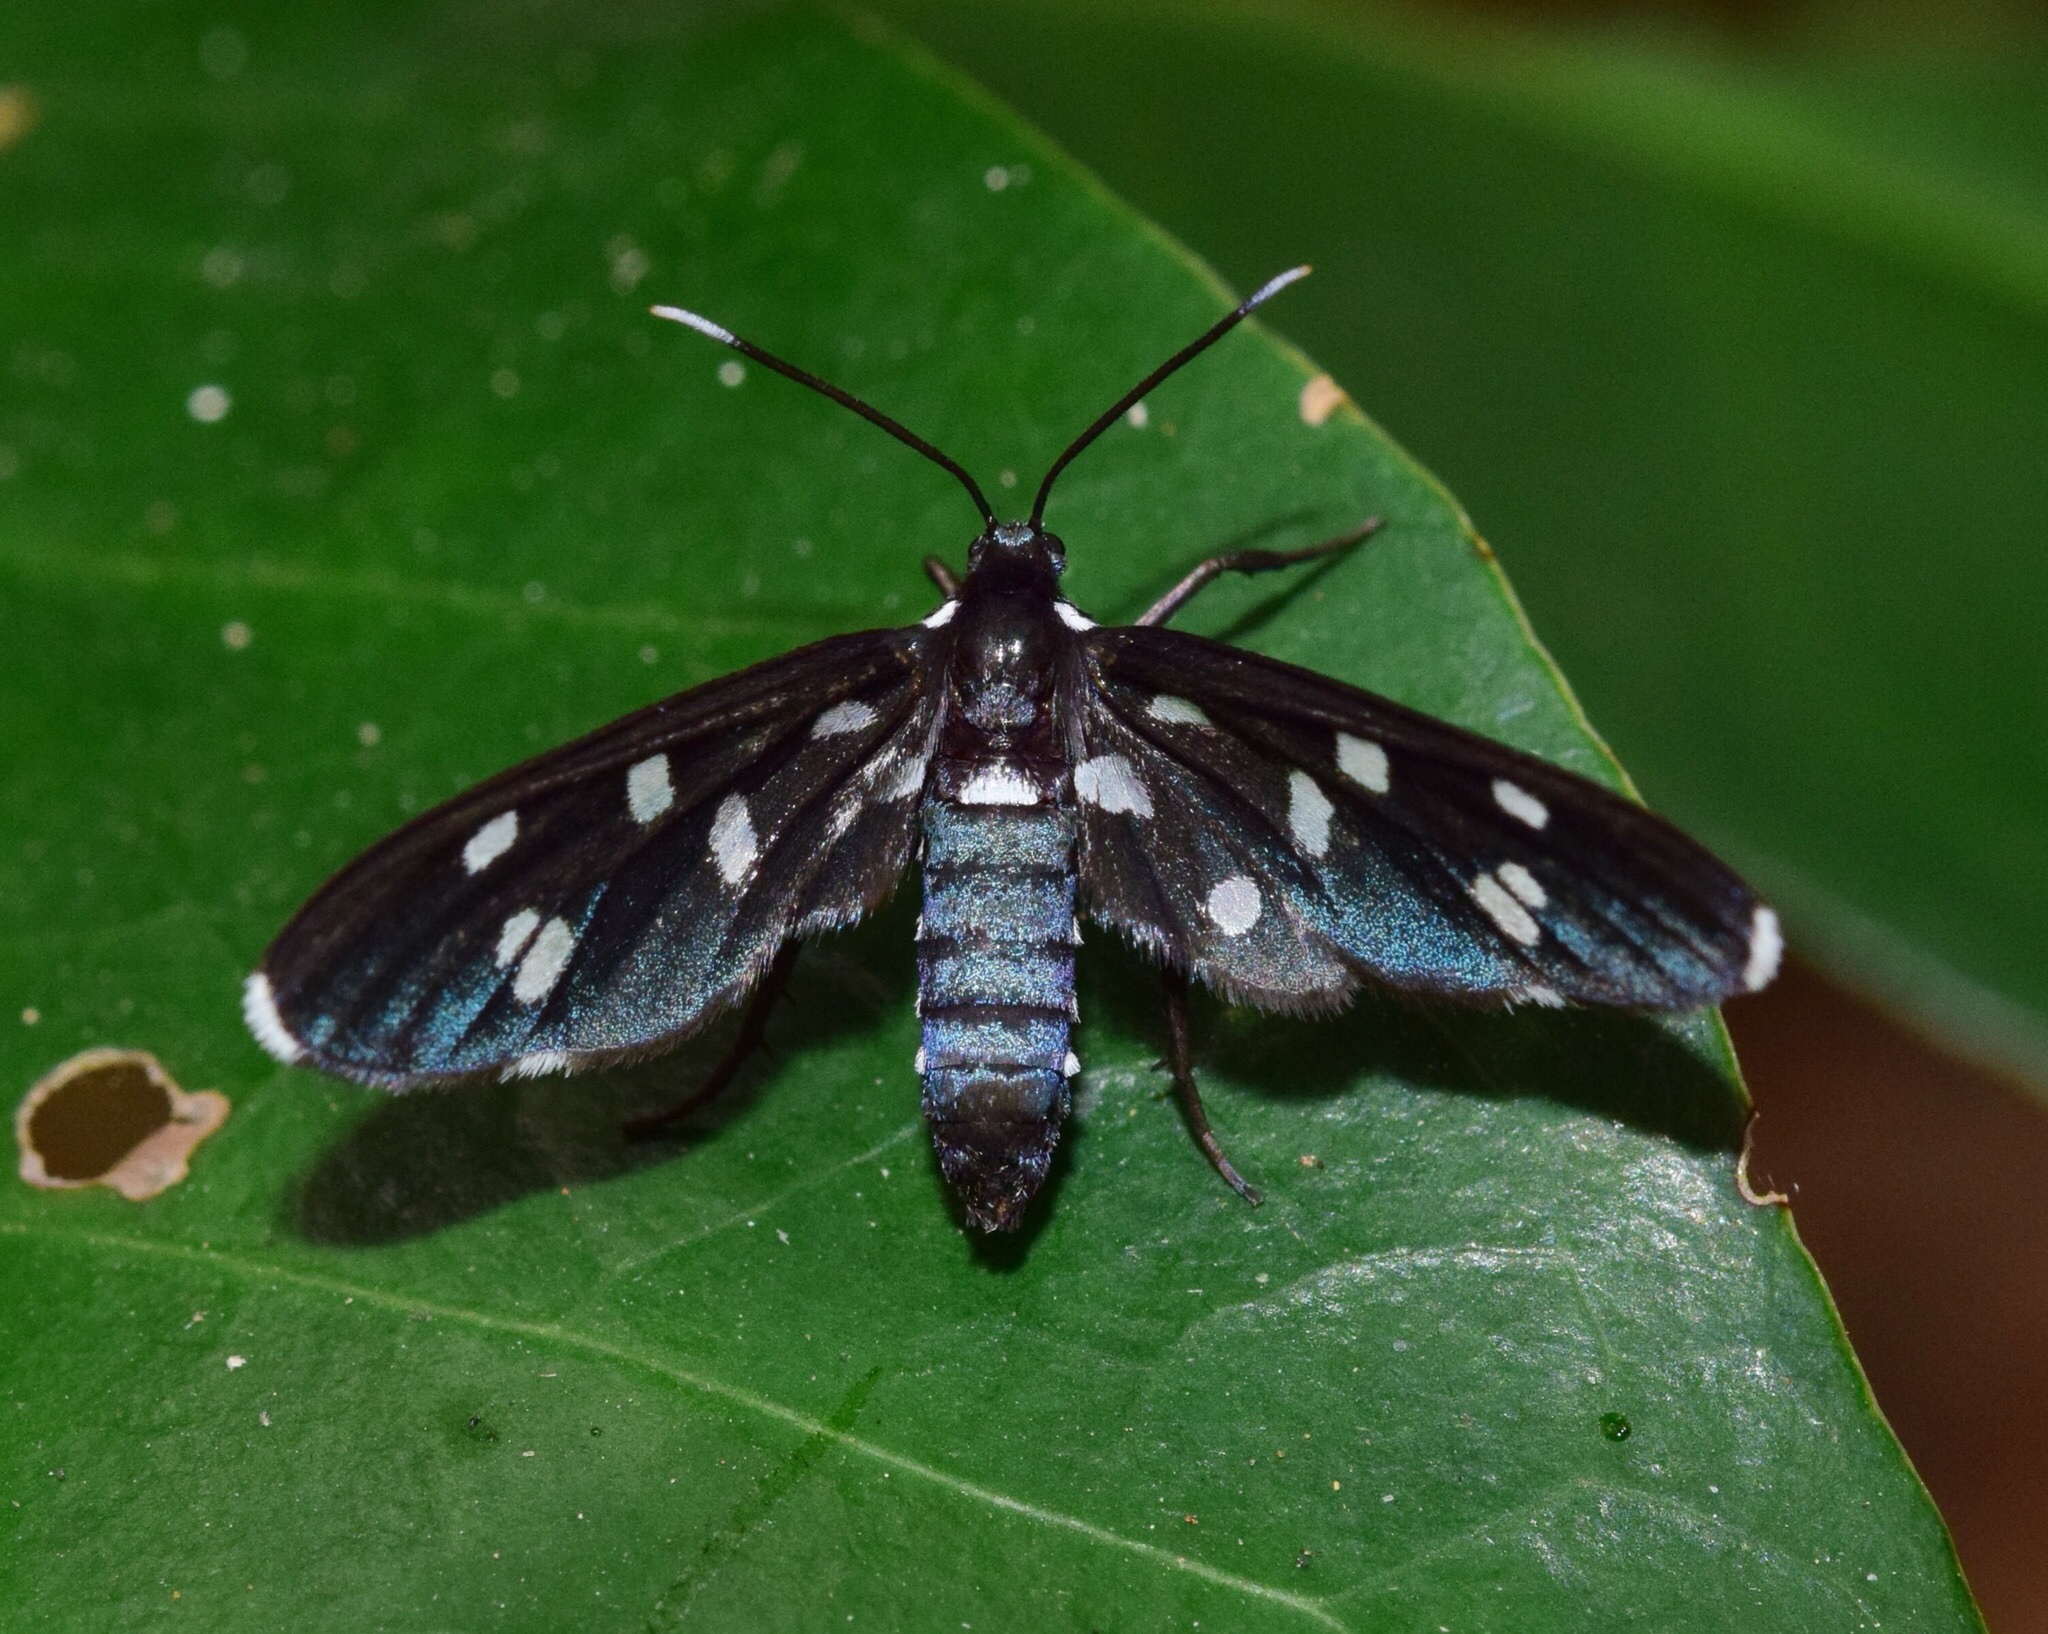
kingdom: Animalia
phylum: Arthropoda
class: Insecta
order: Lepidoptera
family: Erebidae
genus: Ceryx
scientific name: Ceryx longipes
